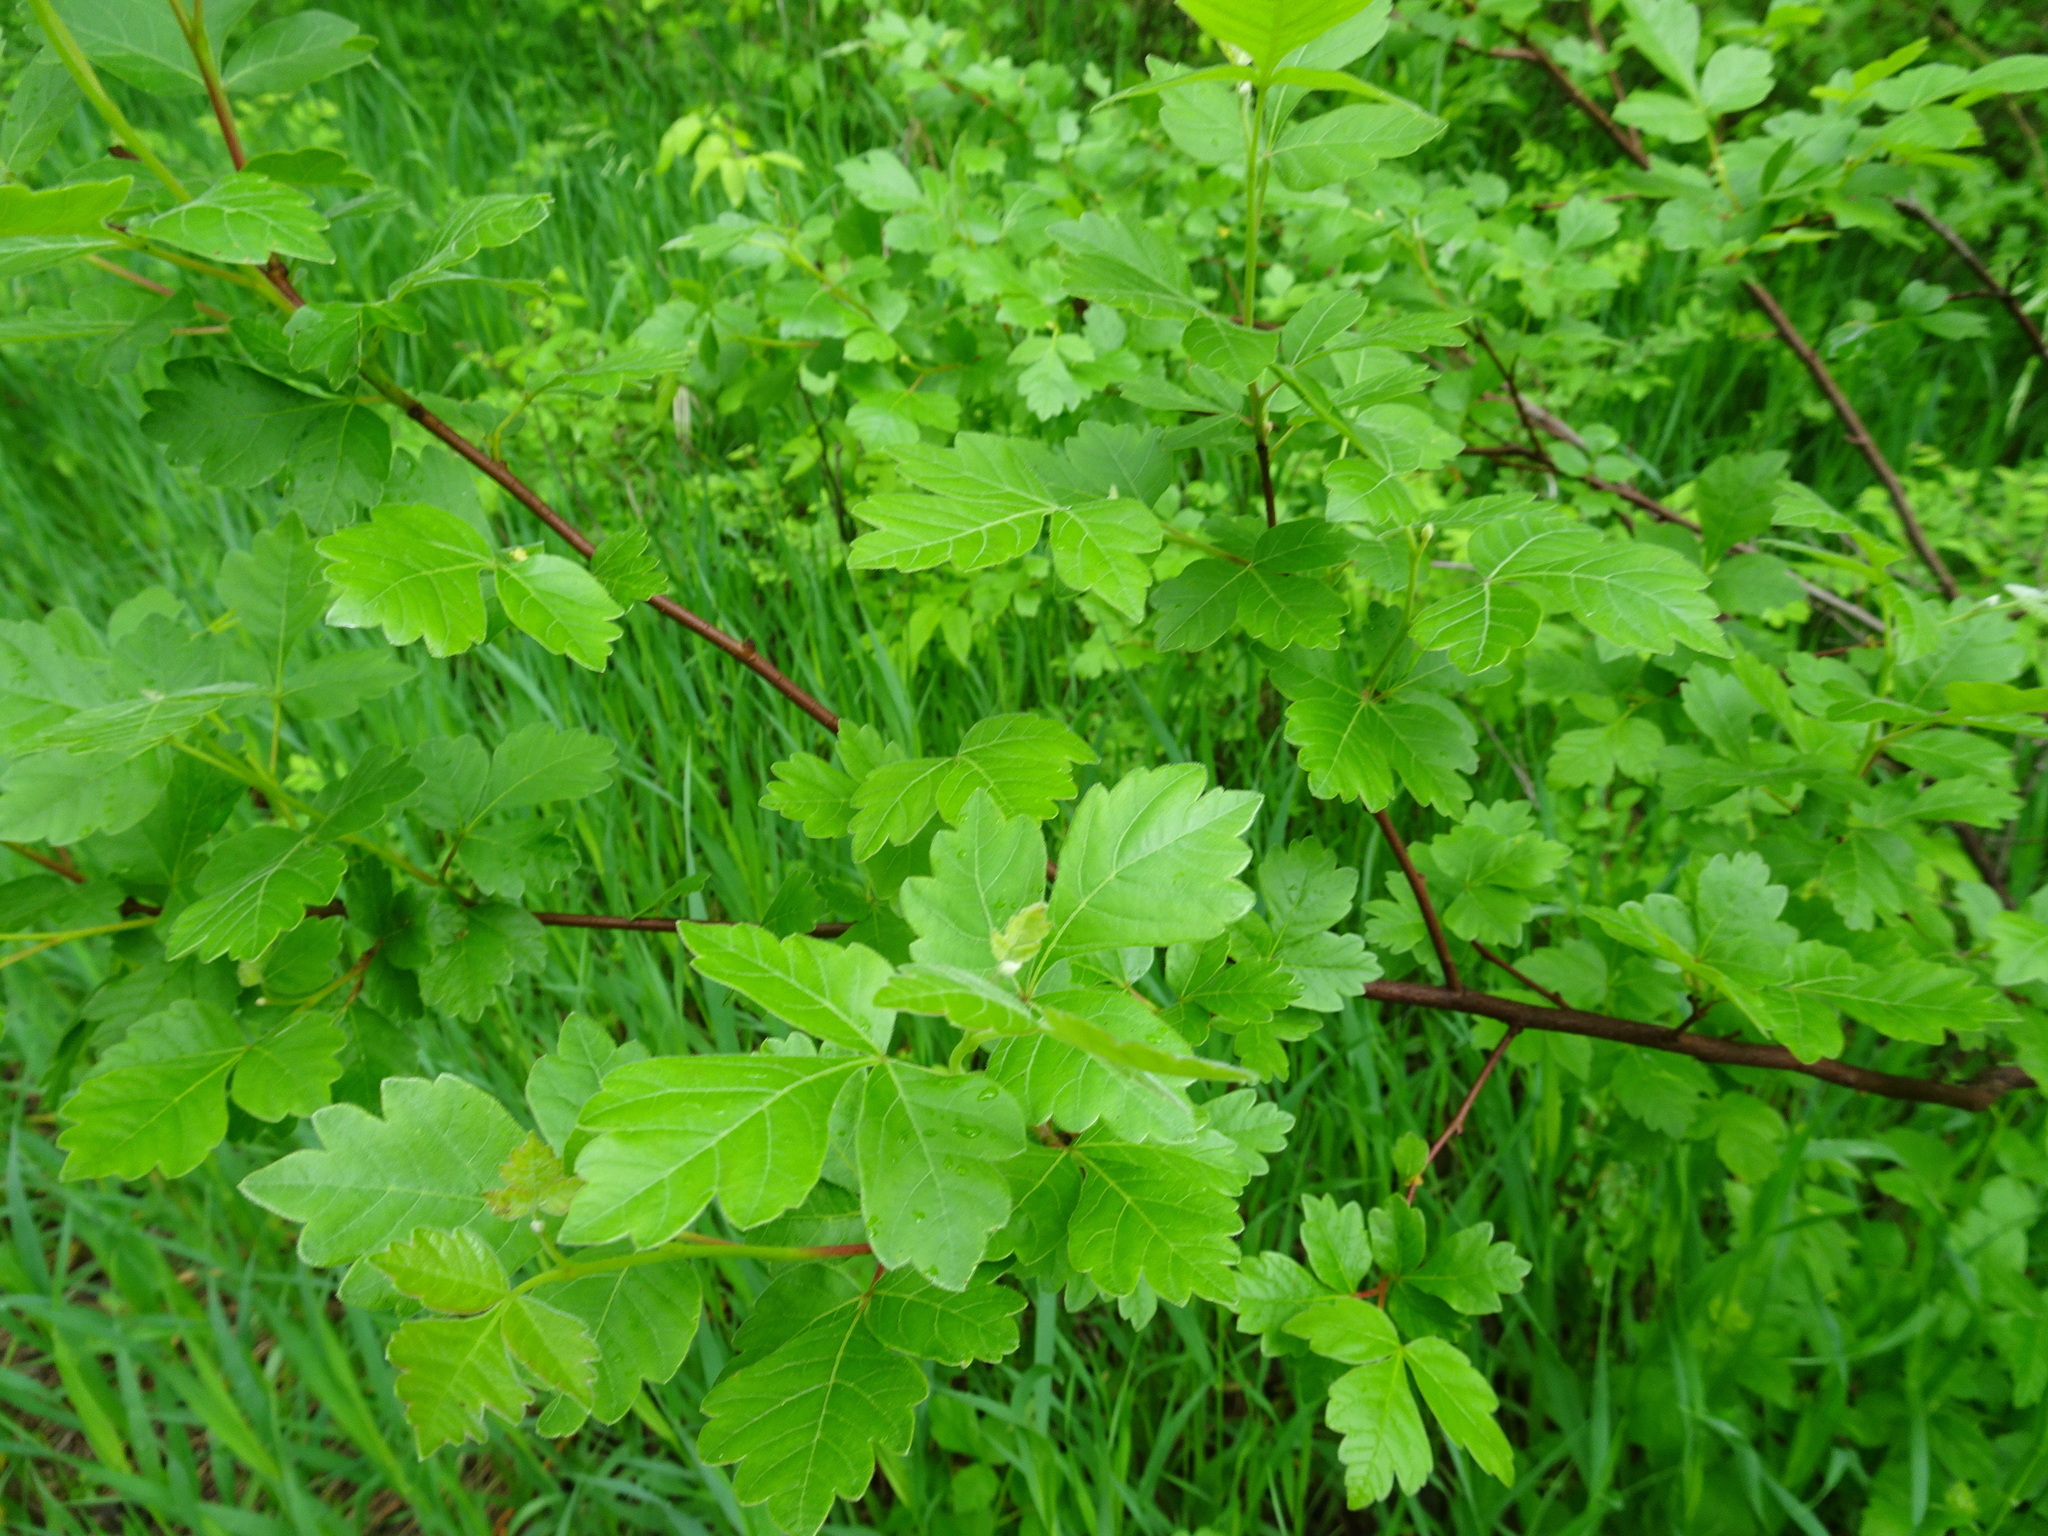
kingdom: Plantae
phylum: Tracheophyta
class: Magnoliopsida
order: Sapindales
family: Anacardiaceae
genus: Rhus
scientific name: Rhus aromatica
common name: Aromatic sumac
